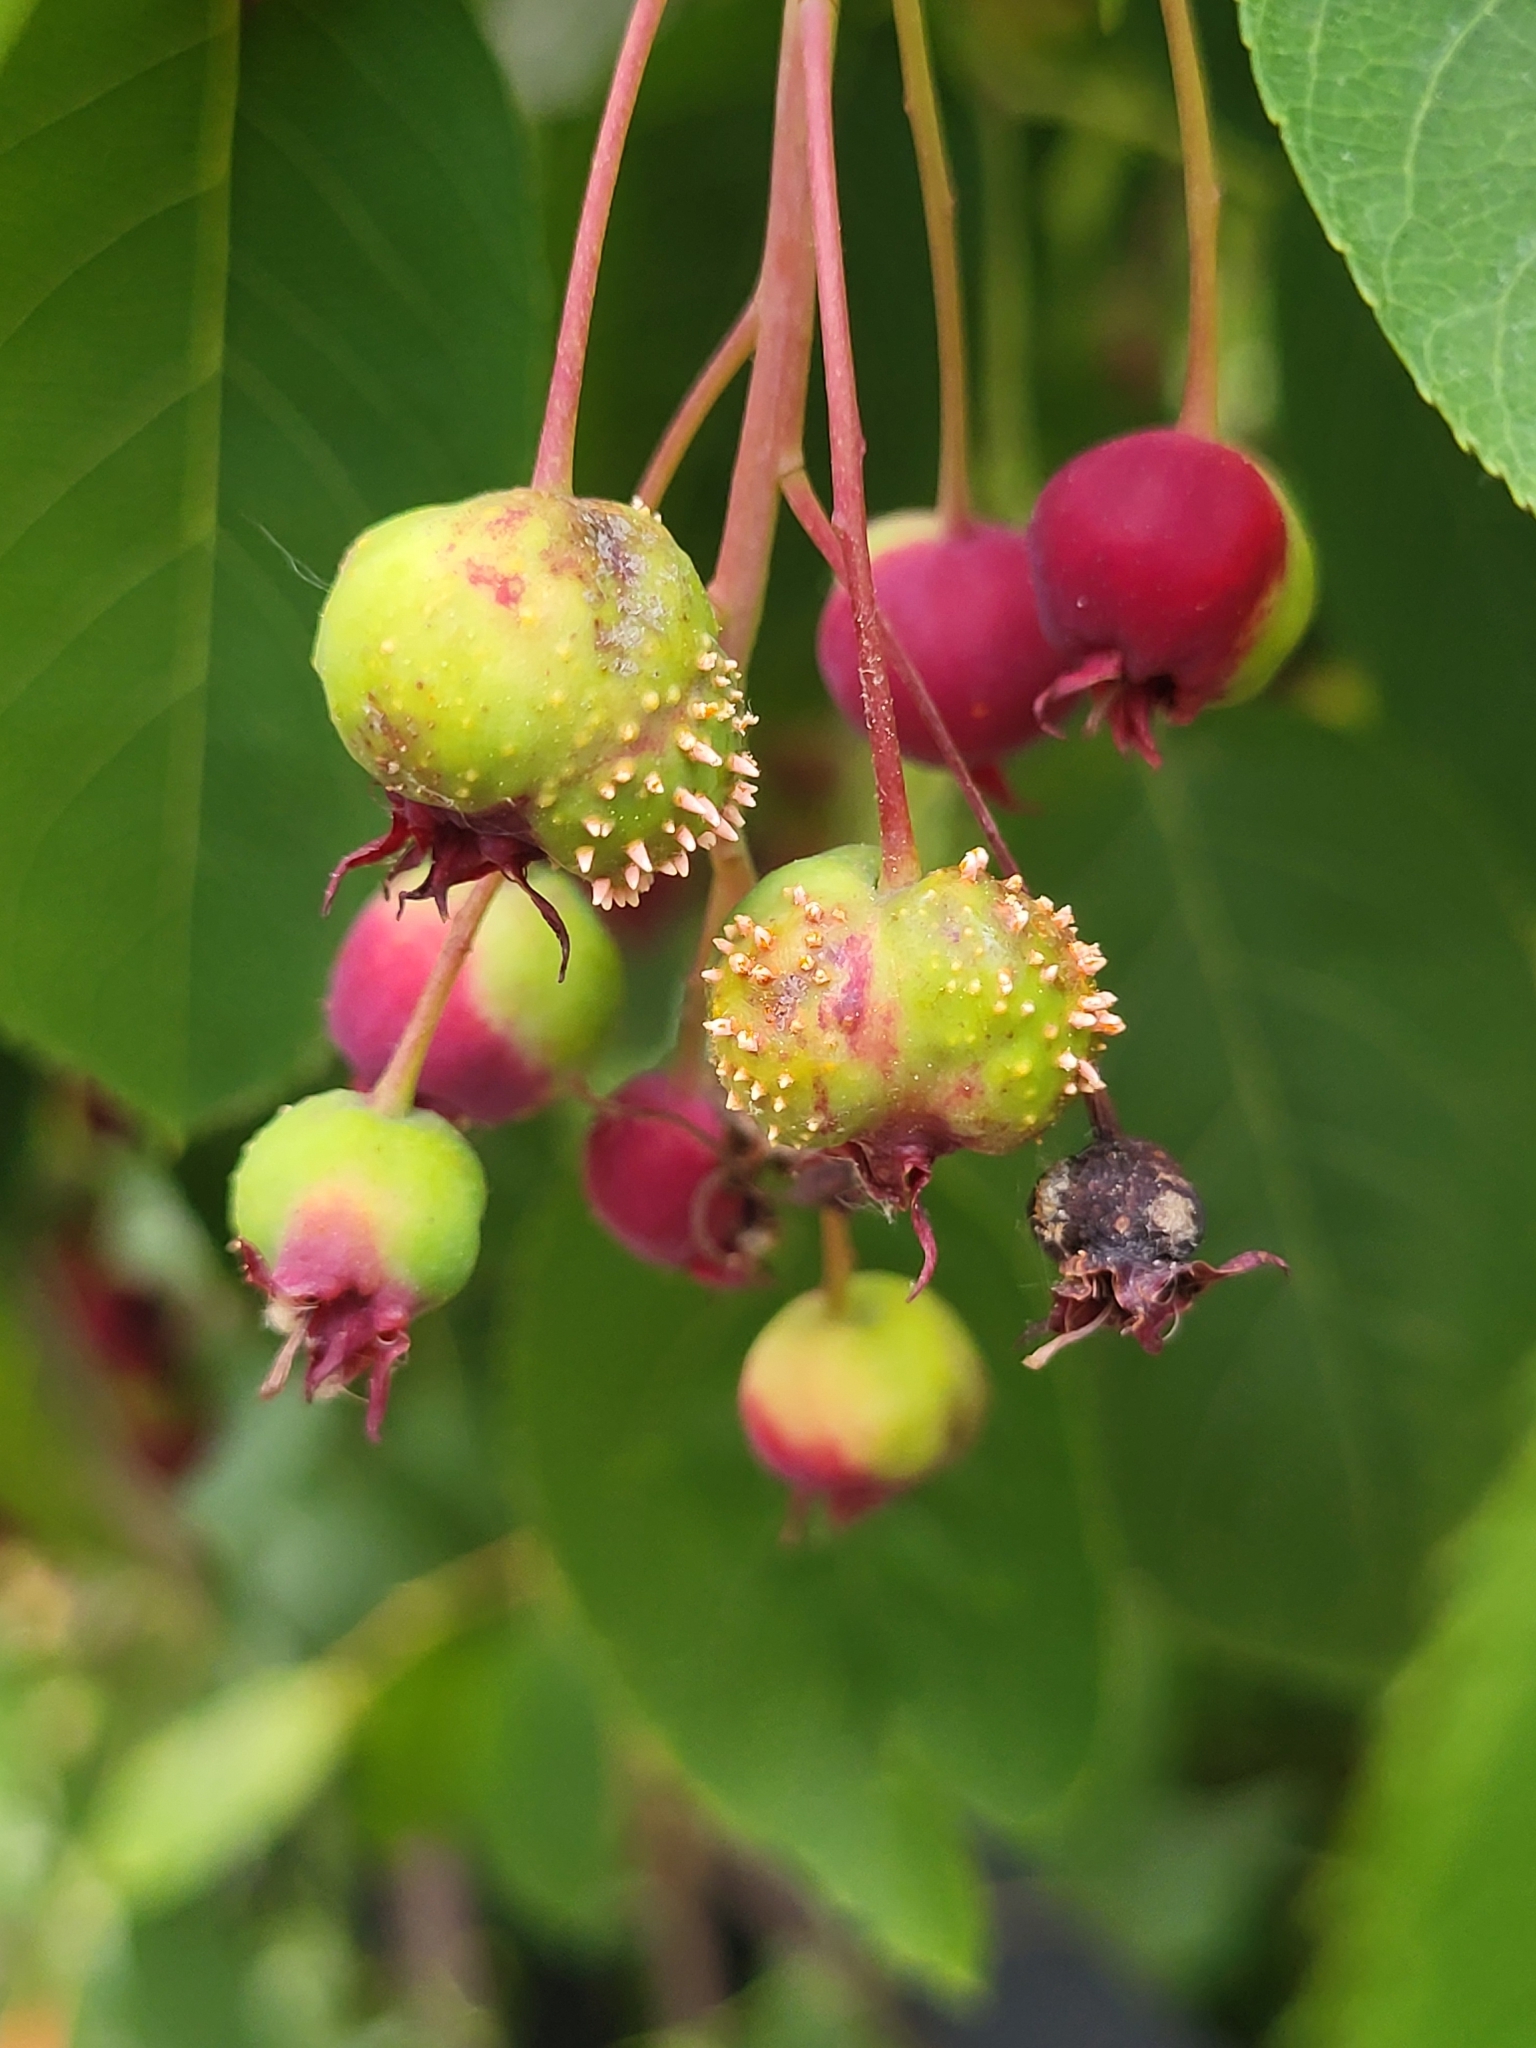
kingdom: Fungi
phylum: Basidiomycota
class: Pucciniomycetes
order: Pucciniales
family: Gymnosporangiaceae
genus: Gymnosporangium
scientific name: Gymnosporangium clavipes
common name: Quince rust
